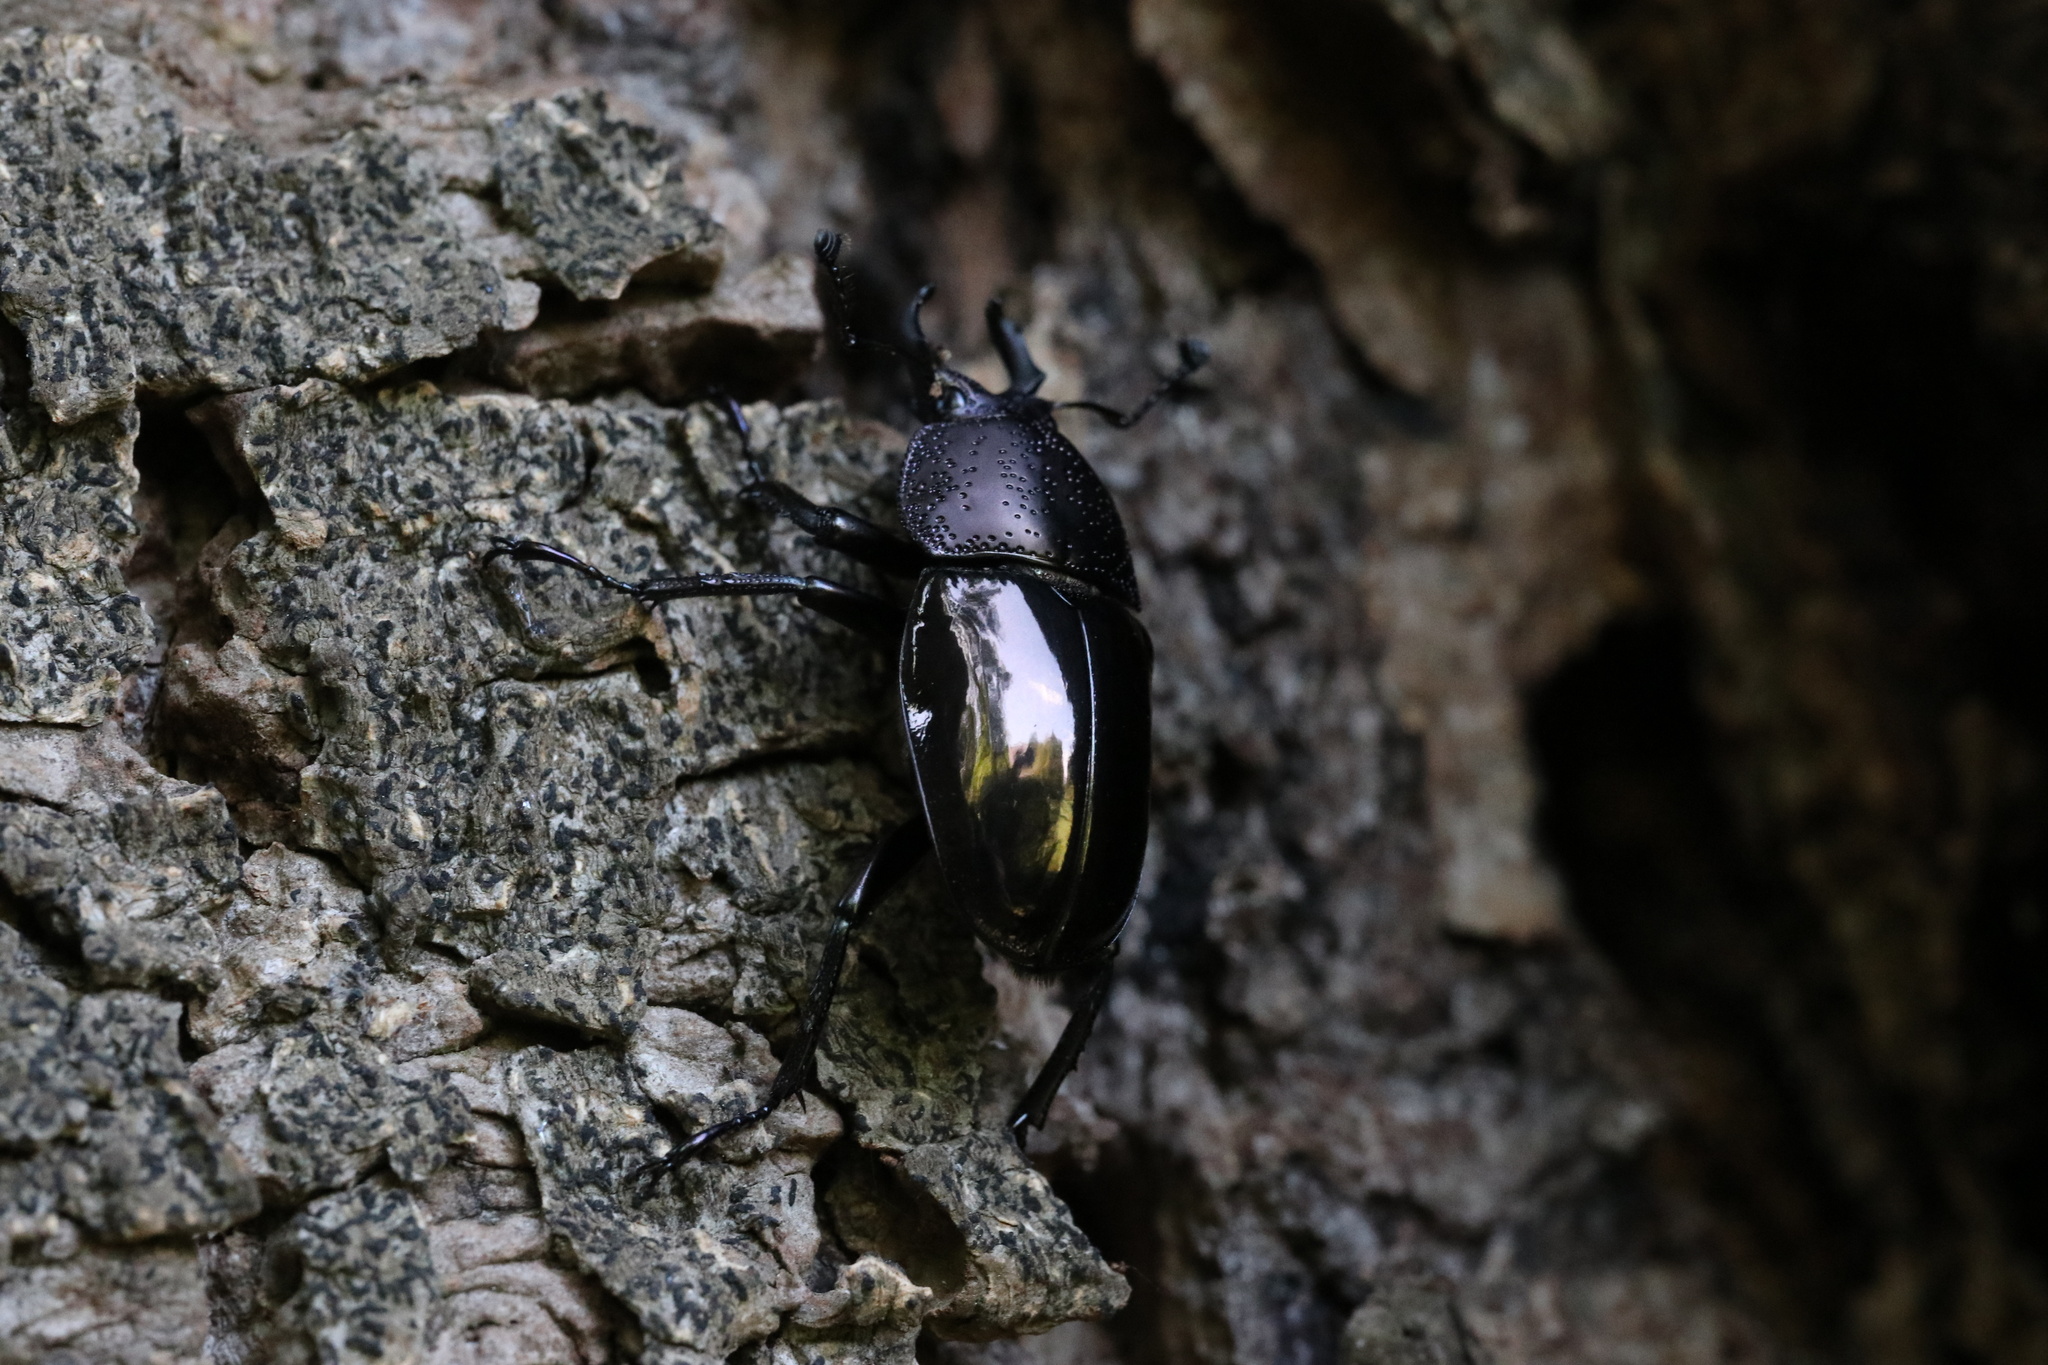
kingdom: Animalia
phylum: Arthropoda
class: Insecta
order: Coleoptera
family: Lucanidae
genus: Streptocerus
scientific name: Streptocerus speciosus
